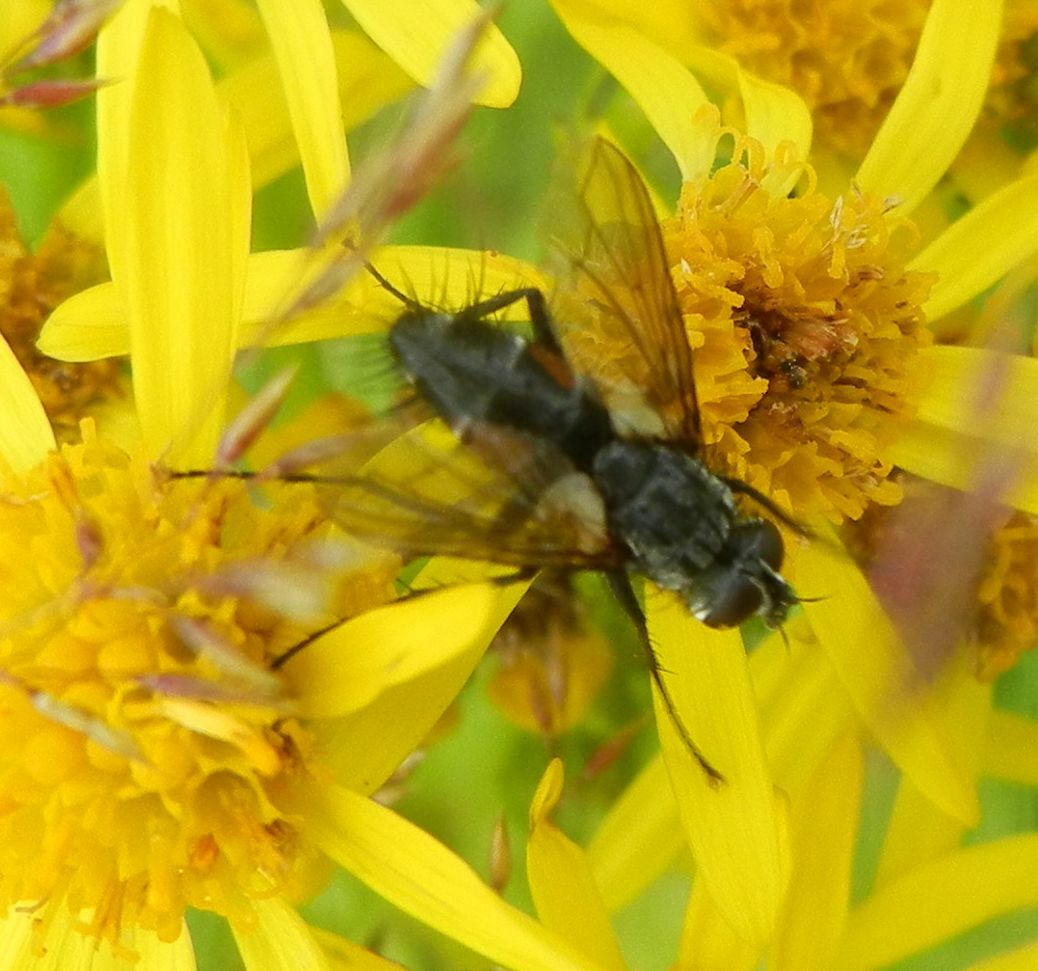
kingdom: Animalia
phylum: Arthropoda
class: Insecta
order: Diptera
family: Tachinidae
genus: Eriothrix
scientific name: Eriothrix rufomaculatus
